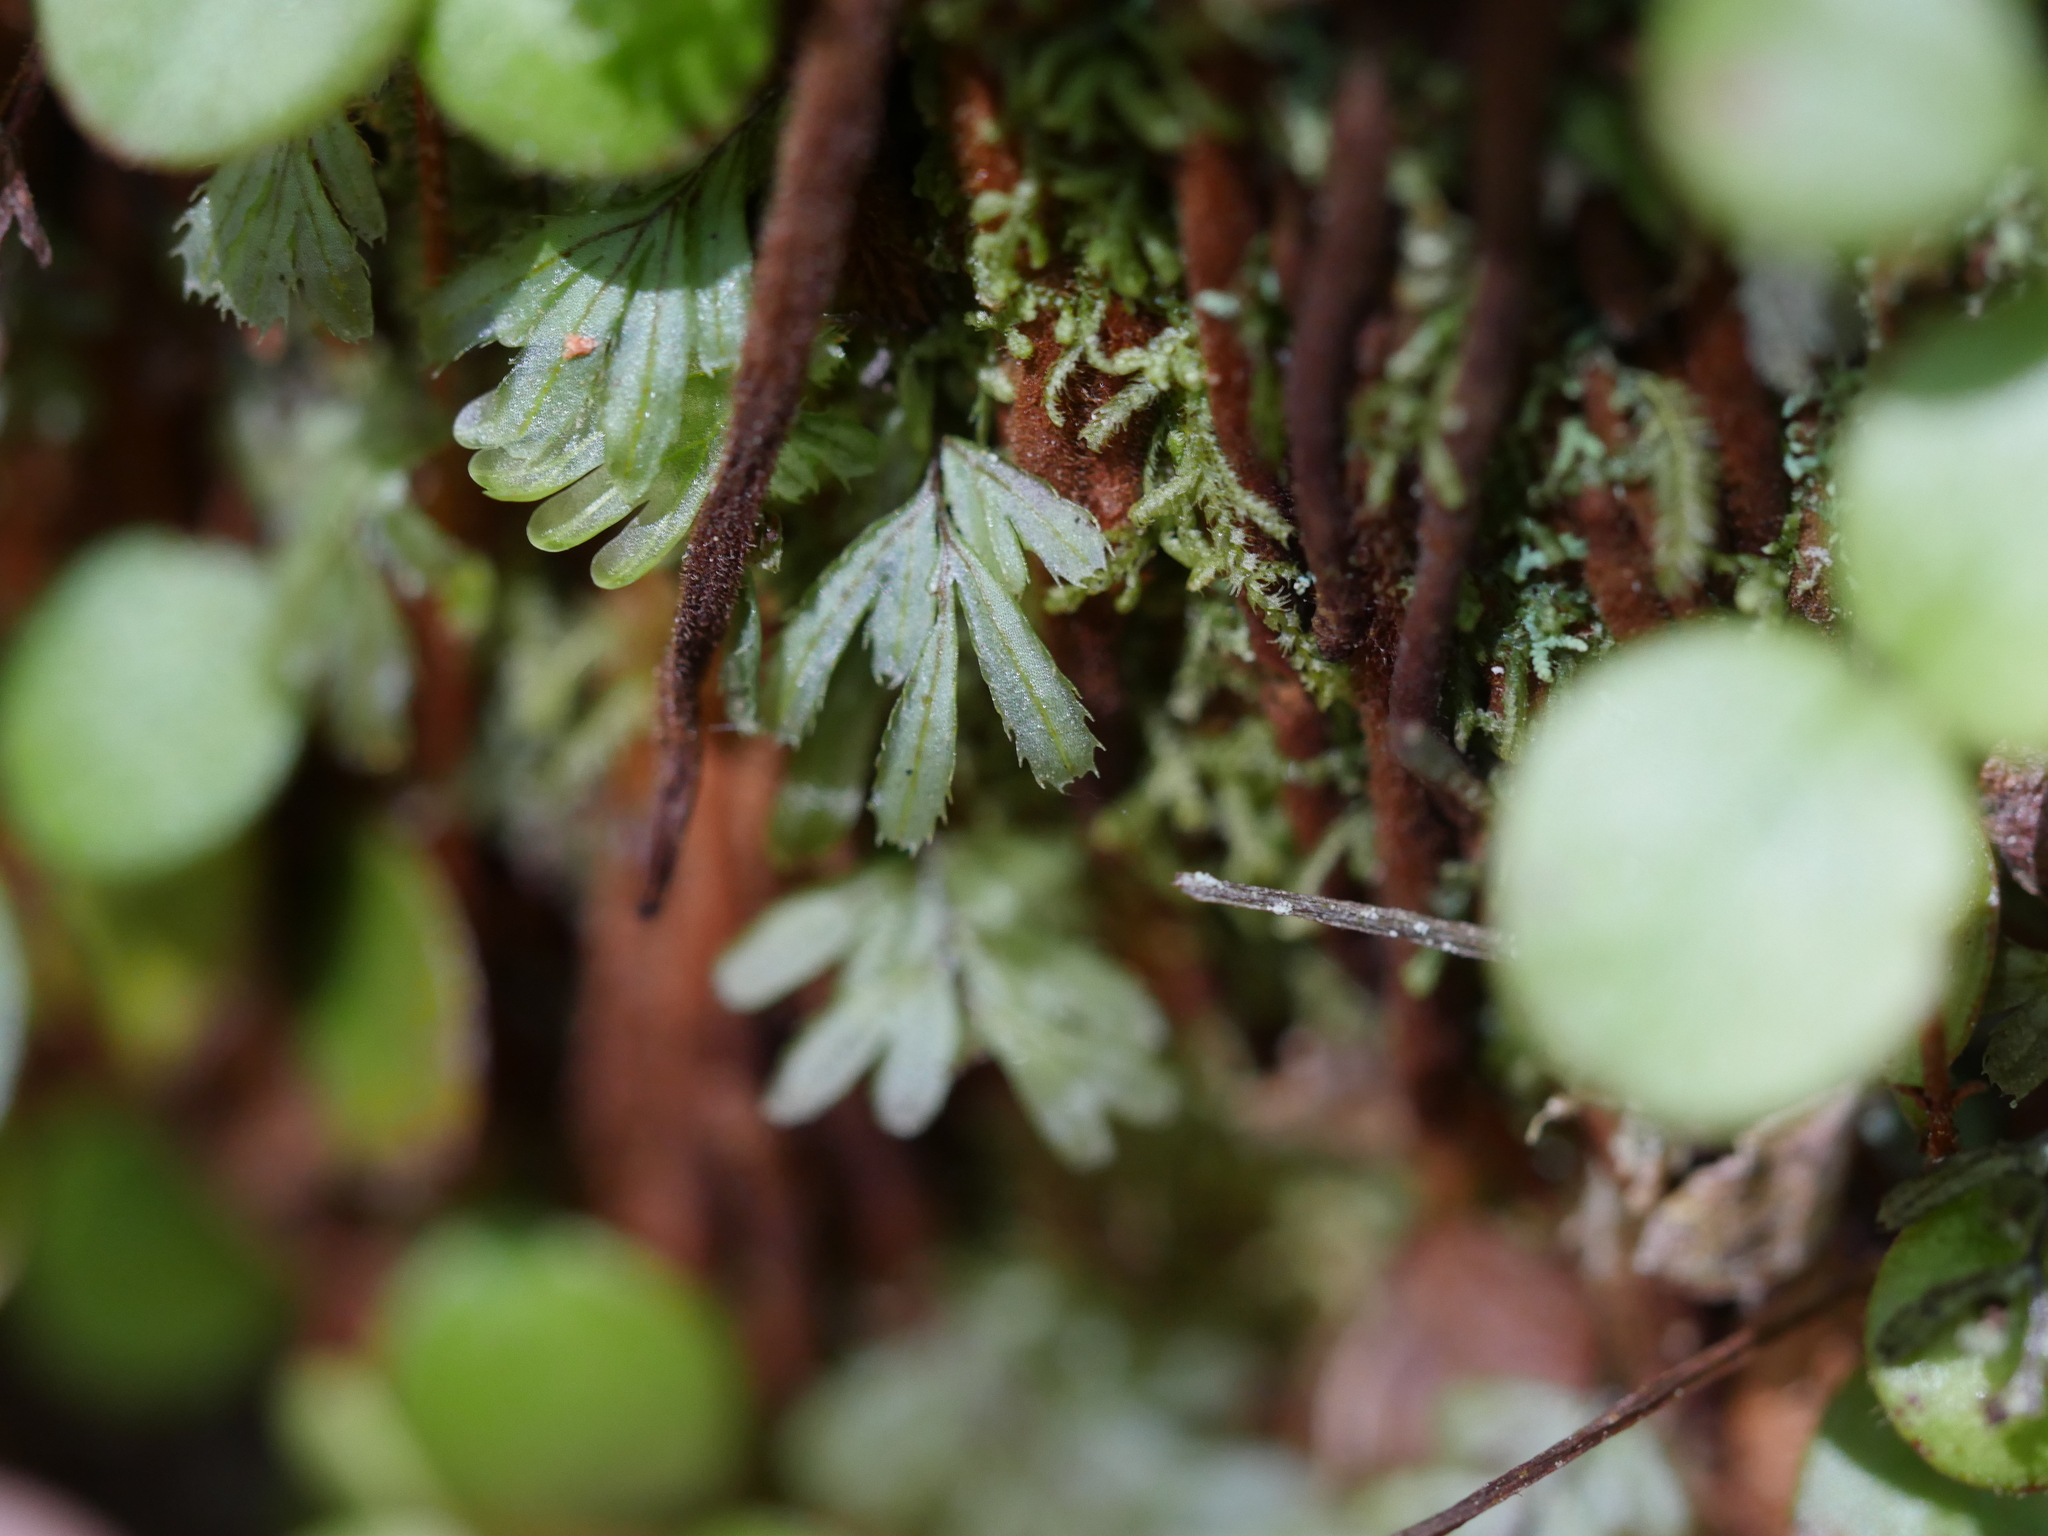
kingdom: Plantae
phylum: Tracheophyta
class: Polypodiopsida
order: Hymenophyllales
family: Hymenophyllaceae
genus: Hymenophyllum
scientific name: Hymenophyllum revolutum
